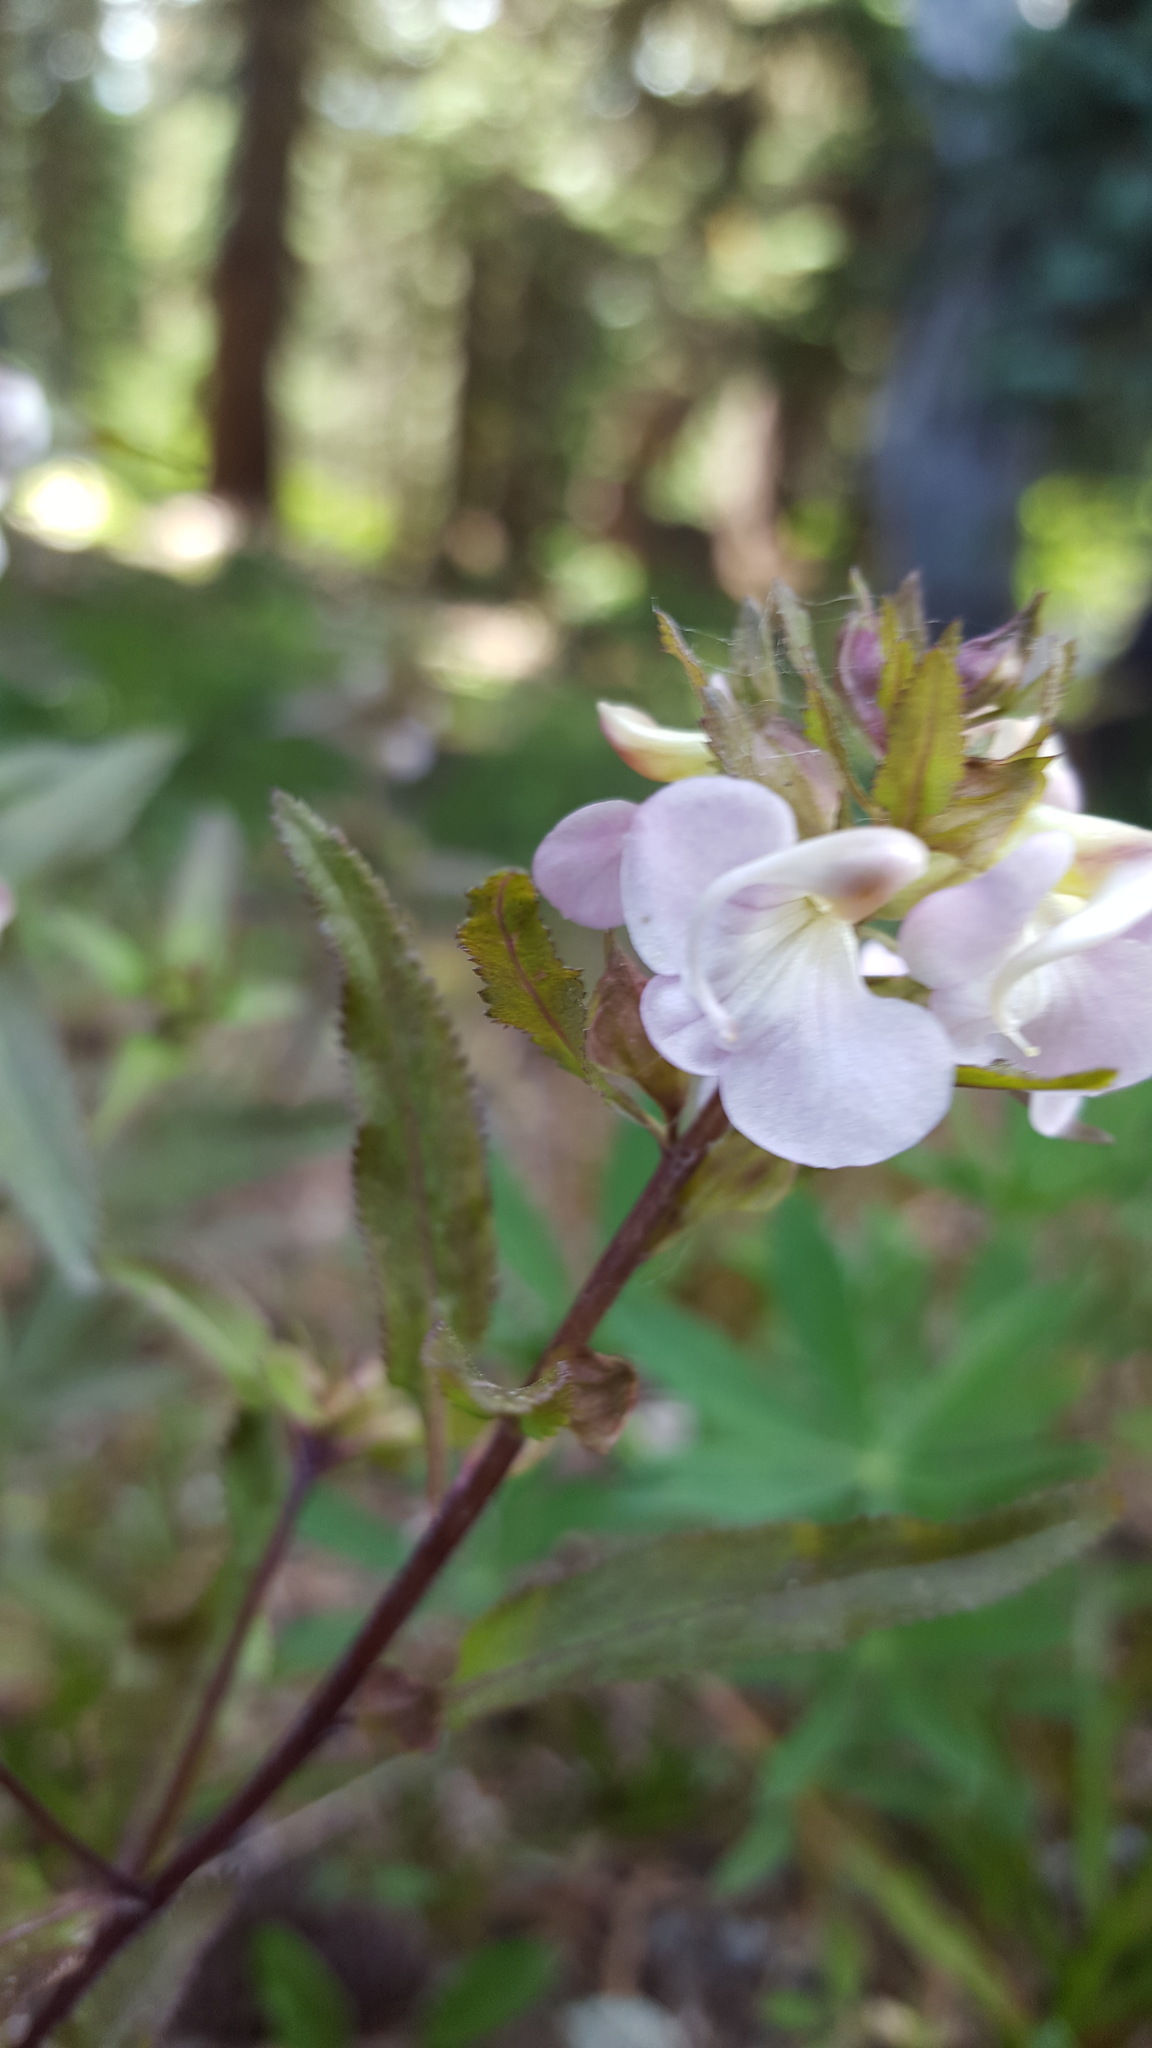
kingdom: Plantae
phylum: Tracheophyta
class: Magnoliopsida
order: Lamiales
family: Orobanchaceae
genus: Pedicularis
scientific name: Pedicularis racemosa
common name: Leafy lousewort
